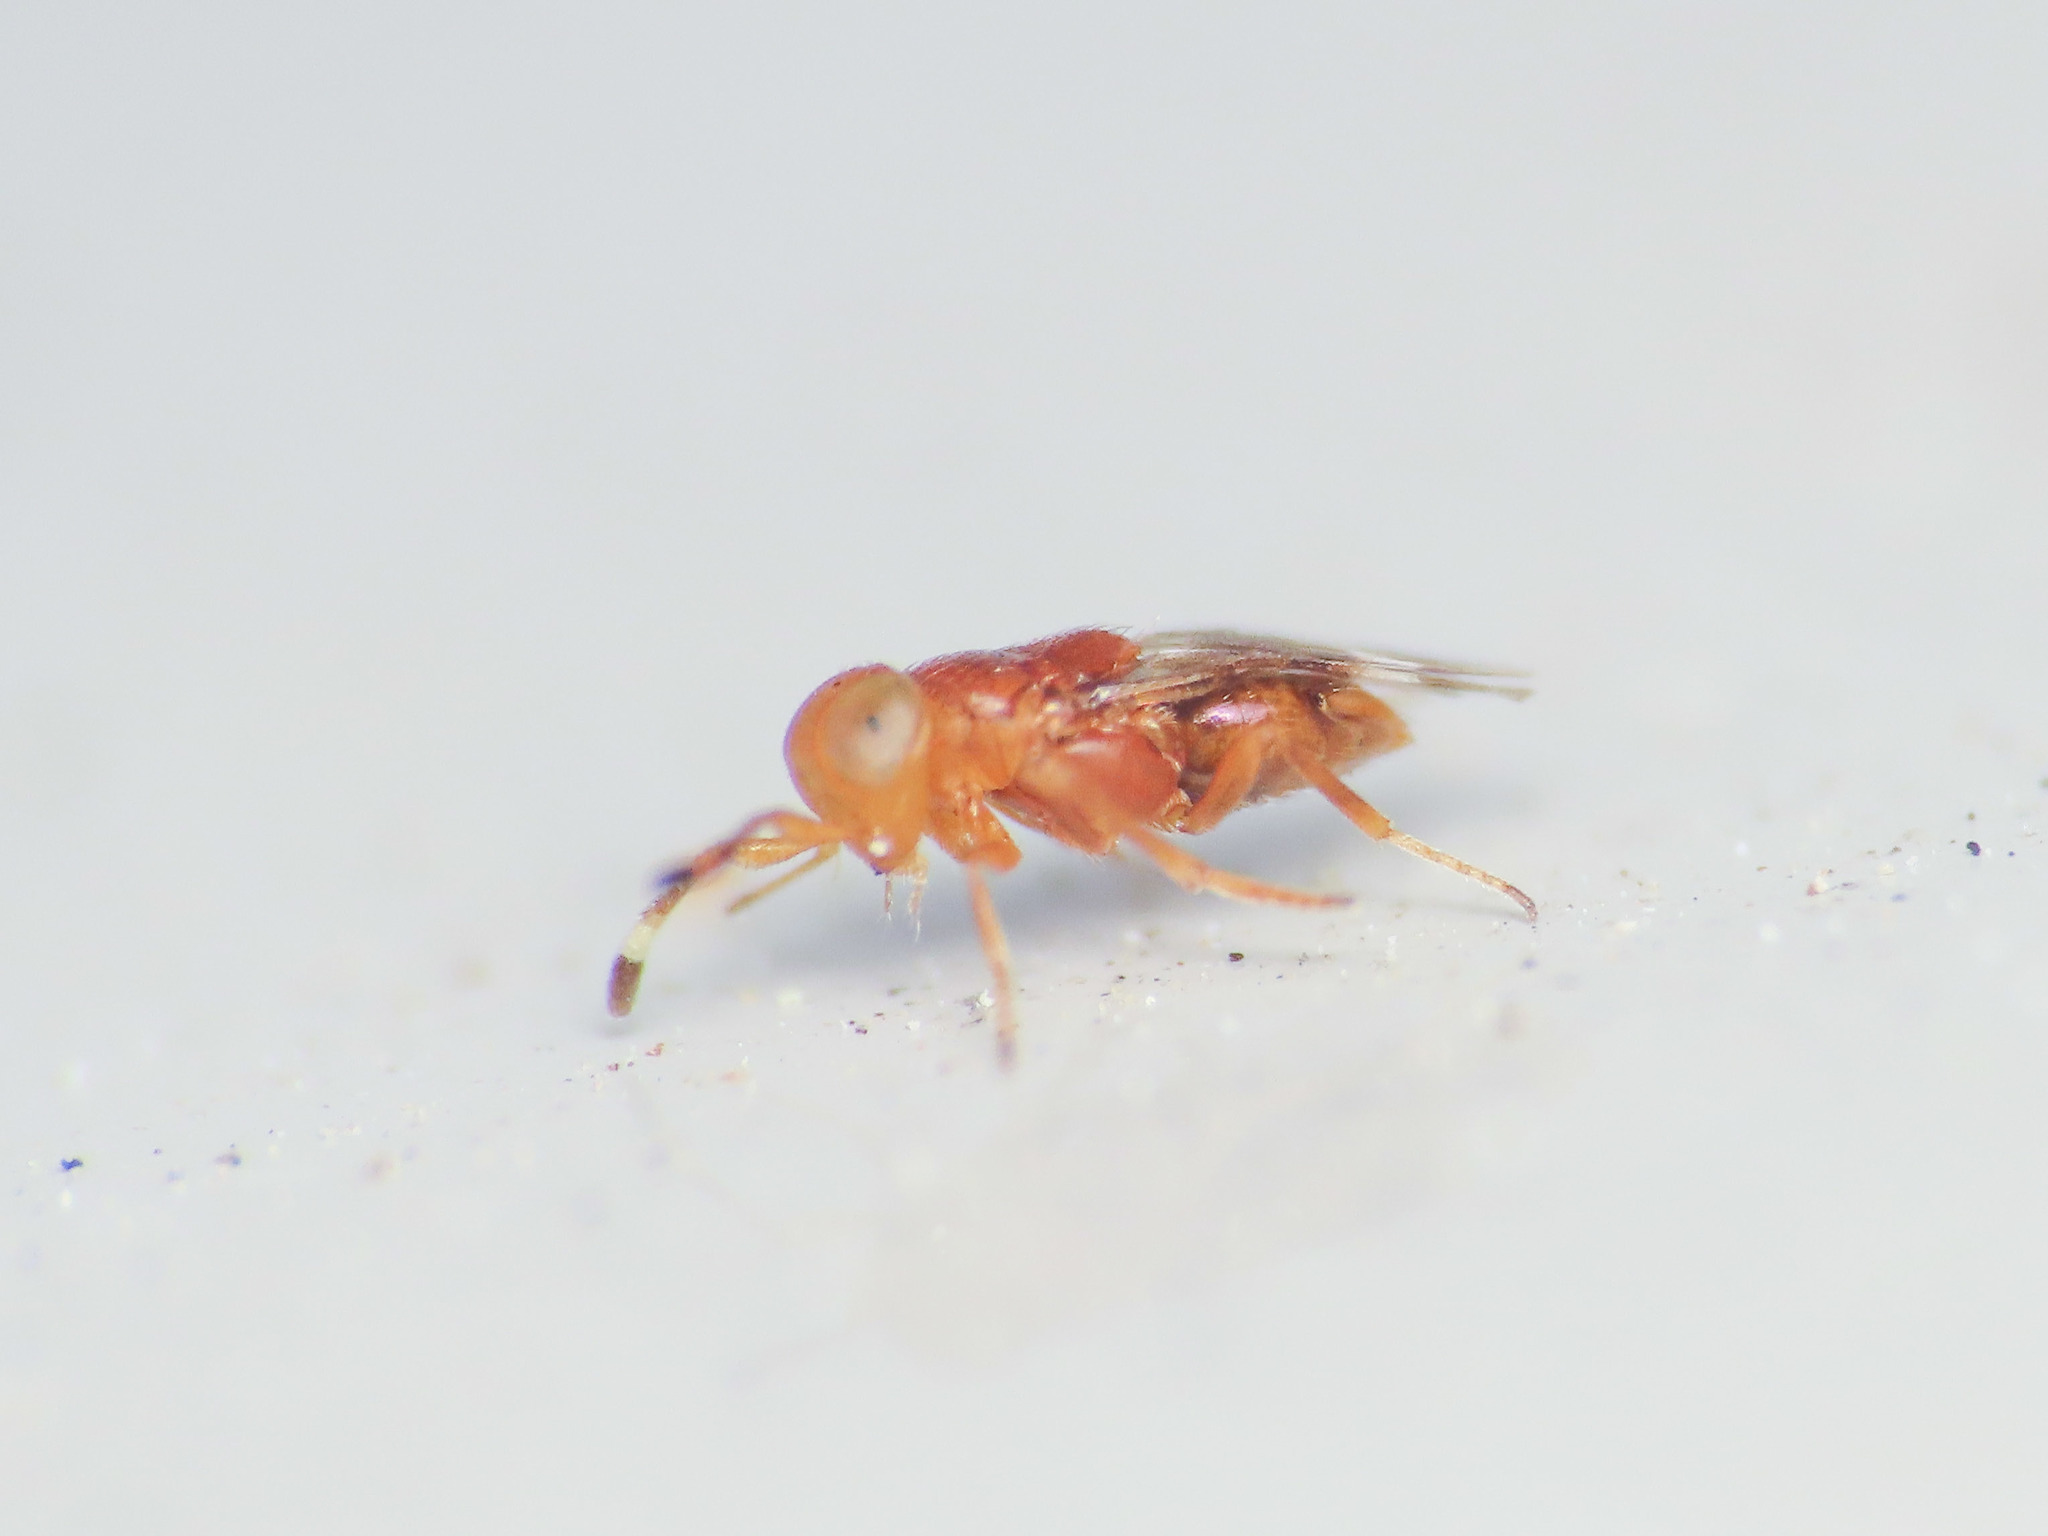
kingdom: Animalia
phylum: Arthropoda
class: Insecta
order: Hymenoptera
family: Encyrtidae
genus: Microterys
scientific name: Microterys ferrugineus
